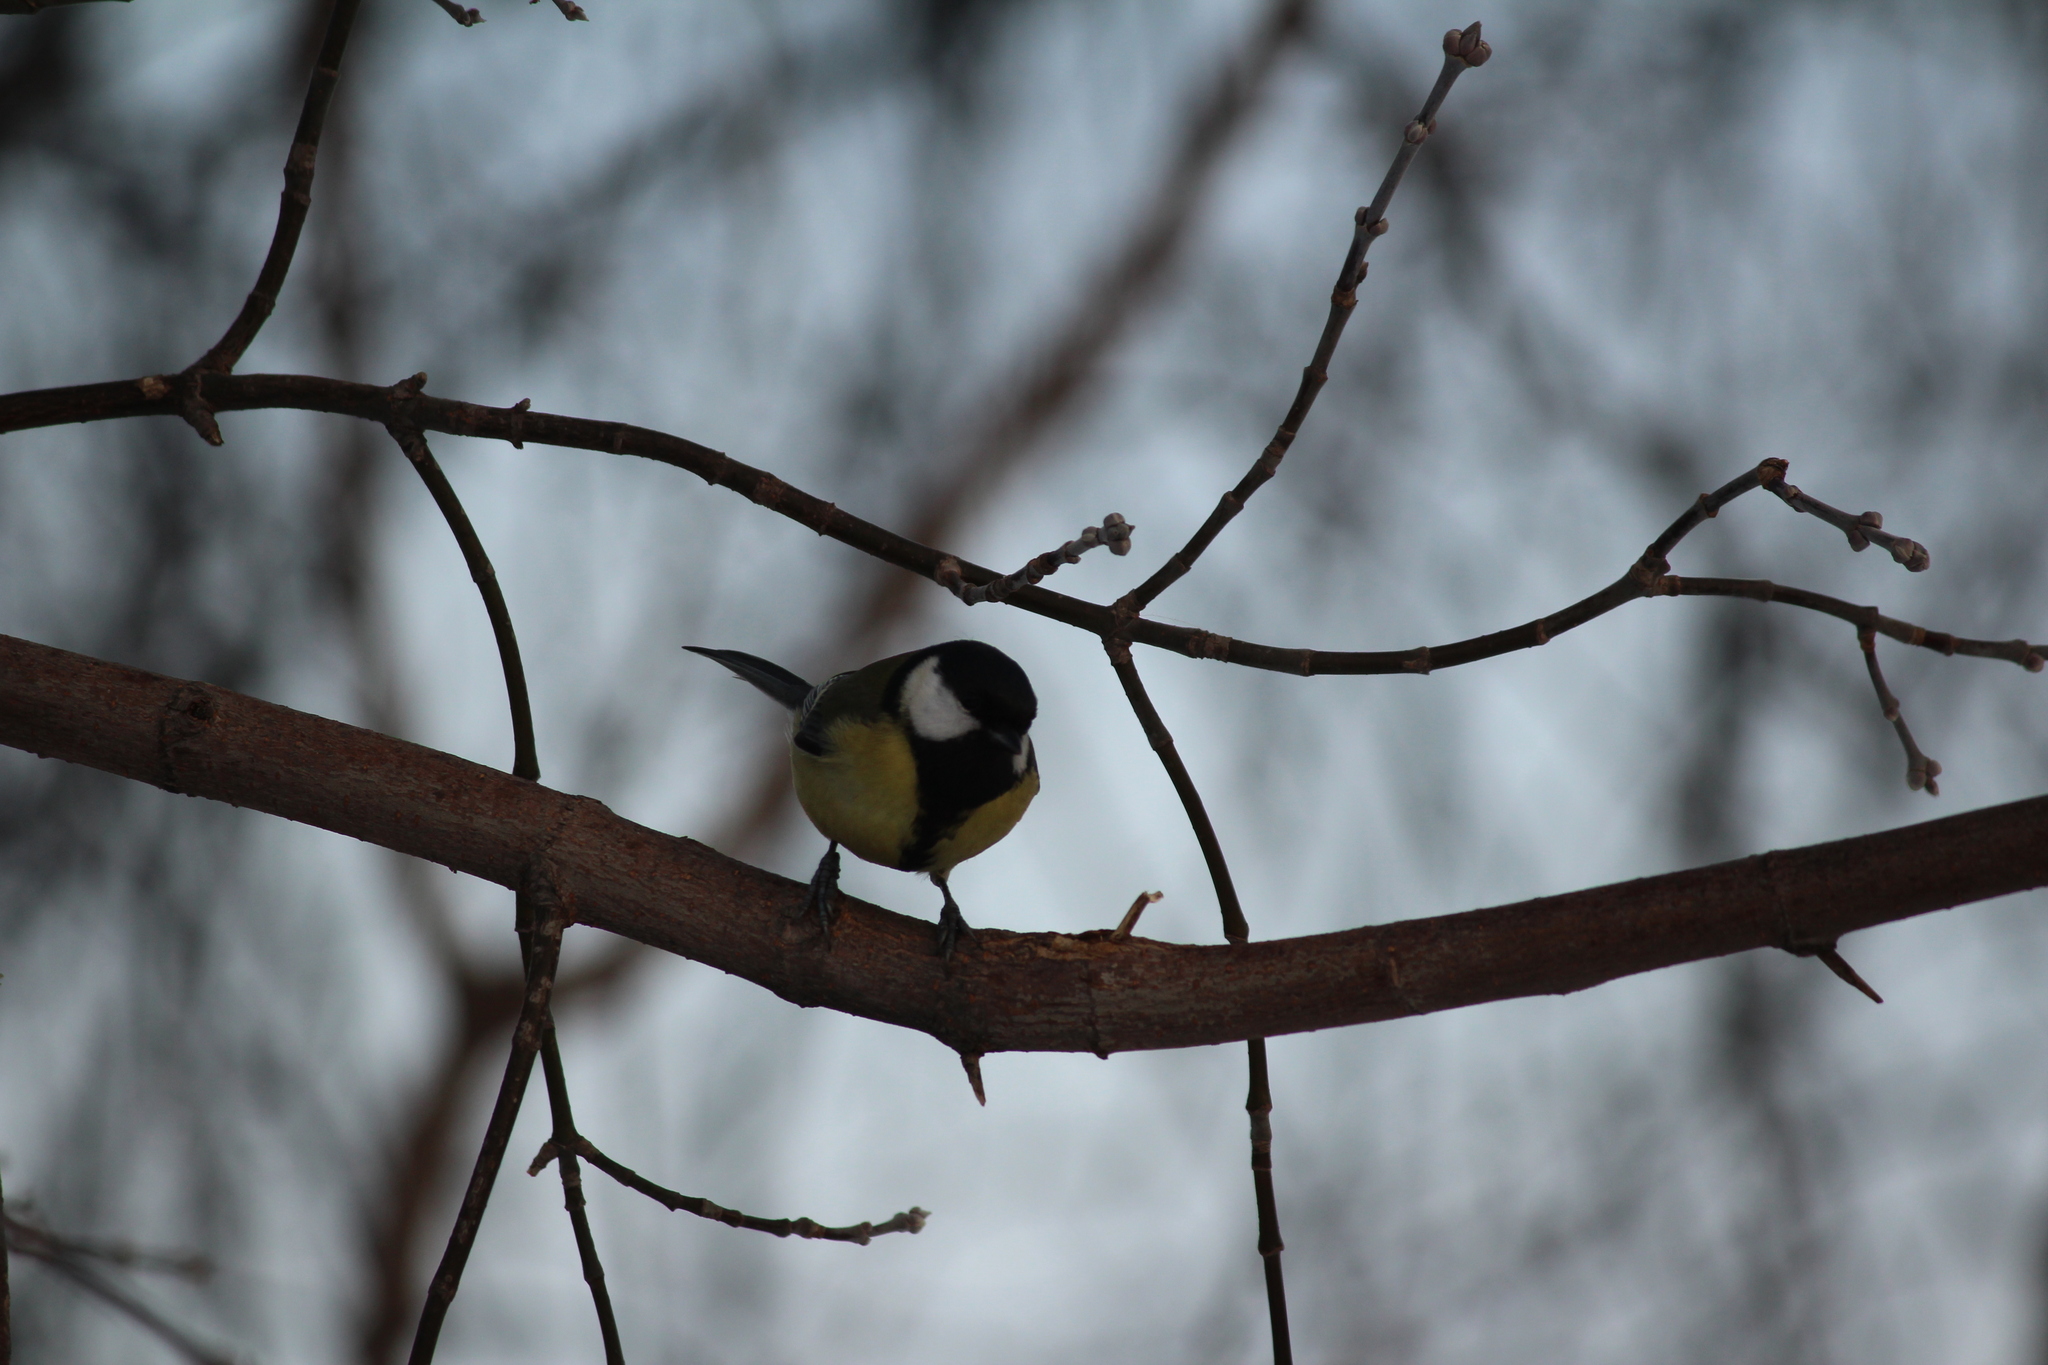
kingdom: Animalia
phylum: Chordata
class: Aves
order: Passeriformes
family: Paridae
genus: Parus
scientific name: Parus major
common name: Great tit
